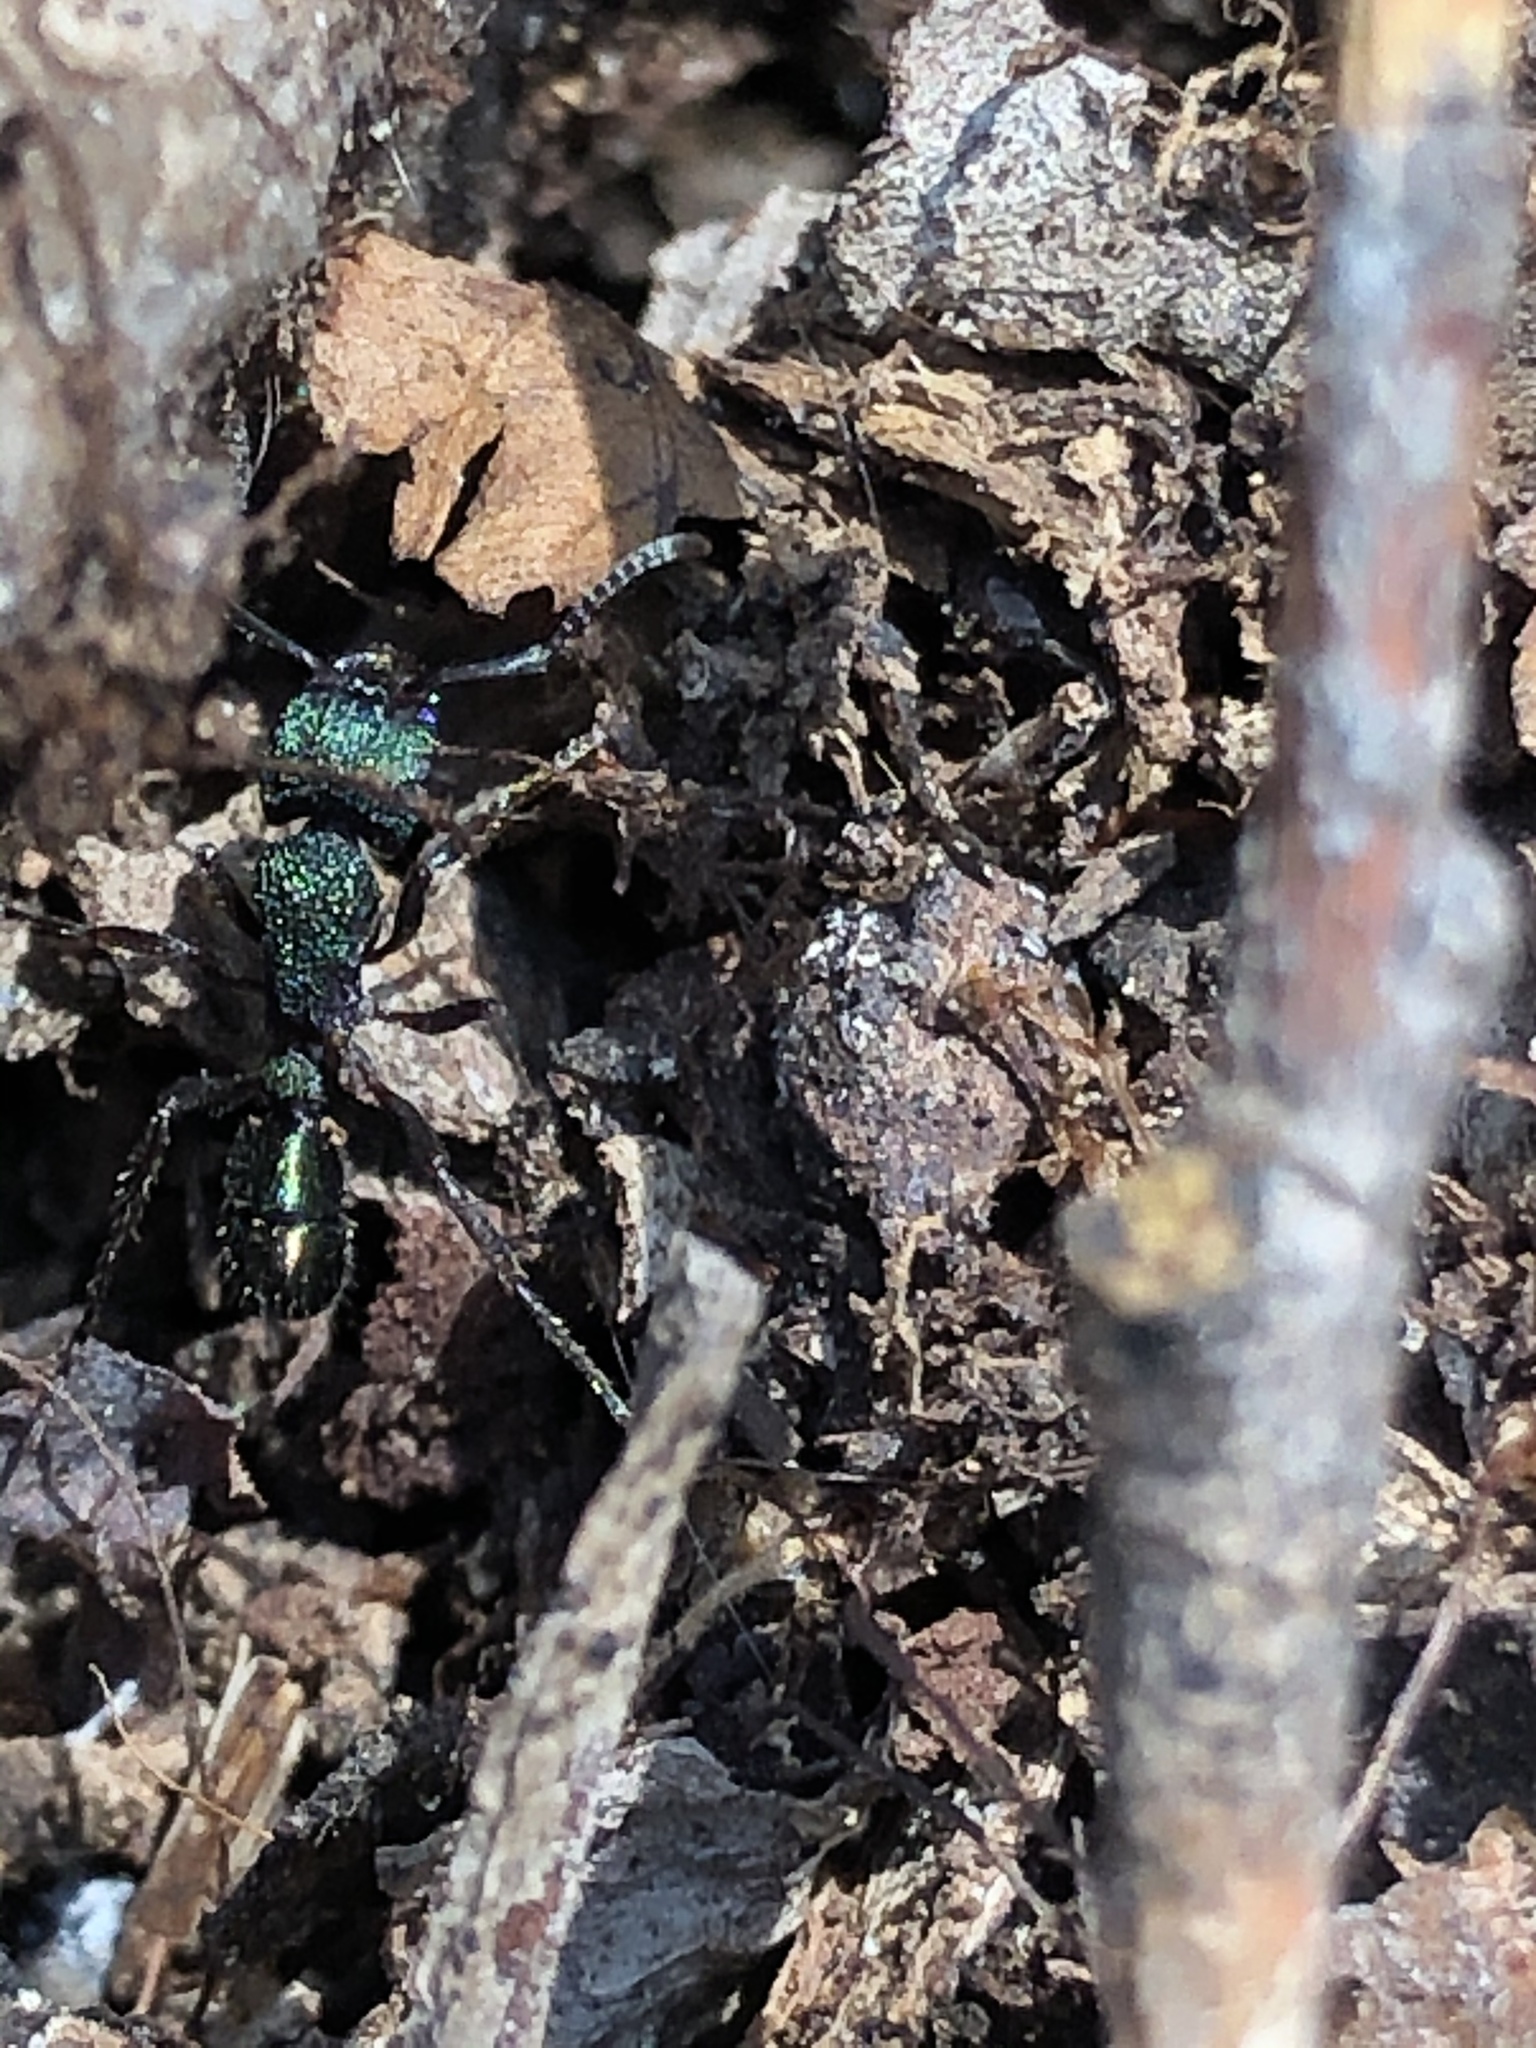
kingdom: Animalia
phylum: Arthropoda
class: Insecta
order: Hymenoptera
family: Formicidae
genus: Rhytidoponera
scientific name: Rhytidoponera metallica
